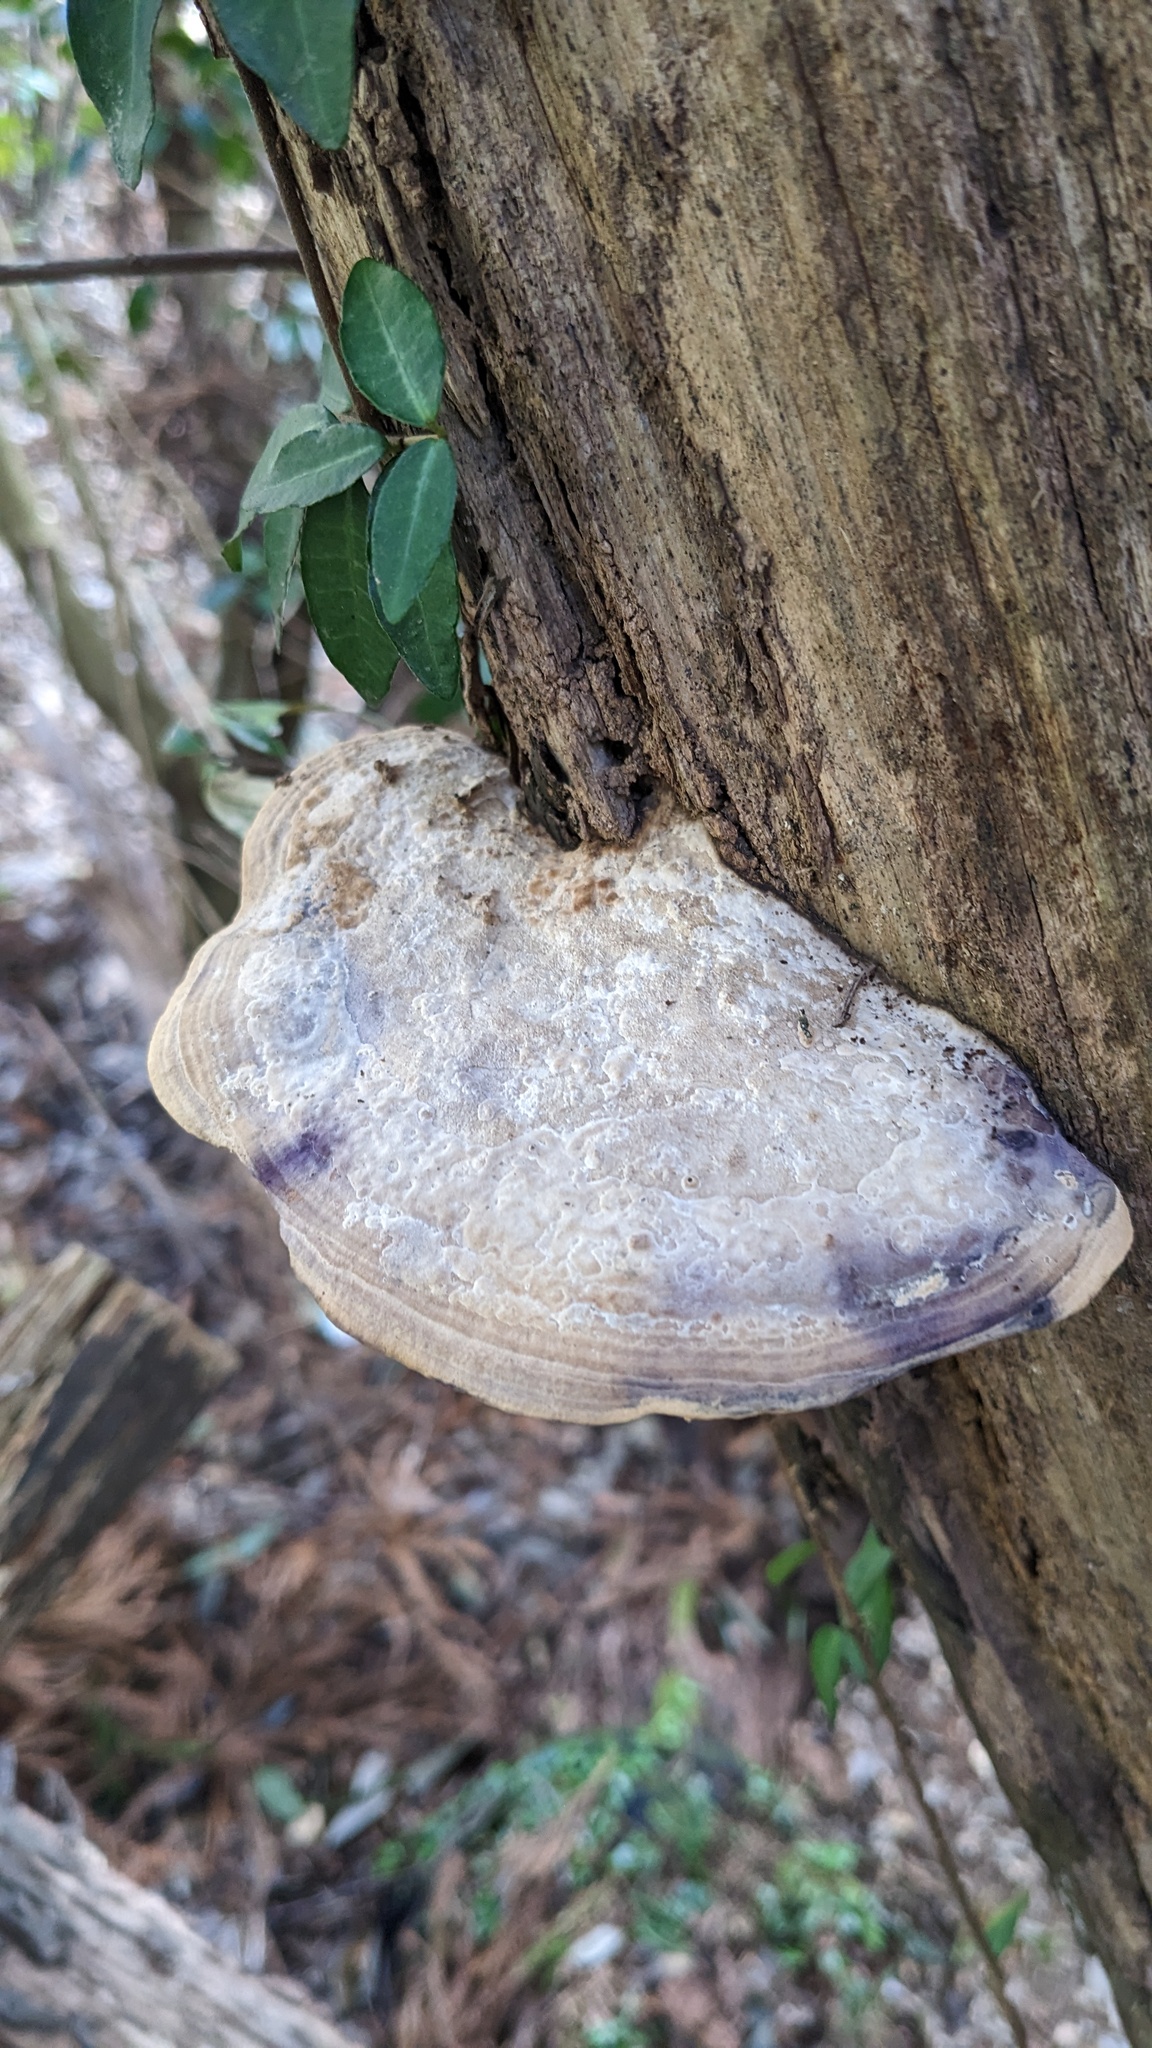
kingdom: Fungi
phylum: Basidiomycota
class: Agaricomycetes
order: Polyporales
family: Fomitopsidaceae
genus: Fomitopsis
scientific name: Fomitopsis
